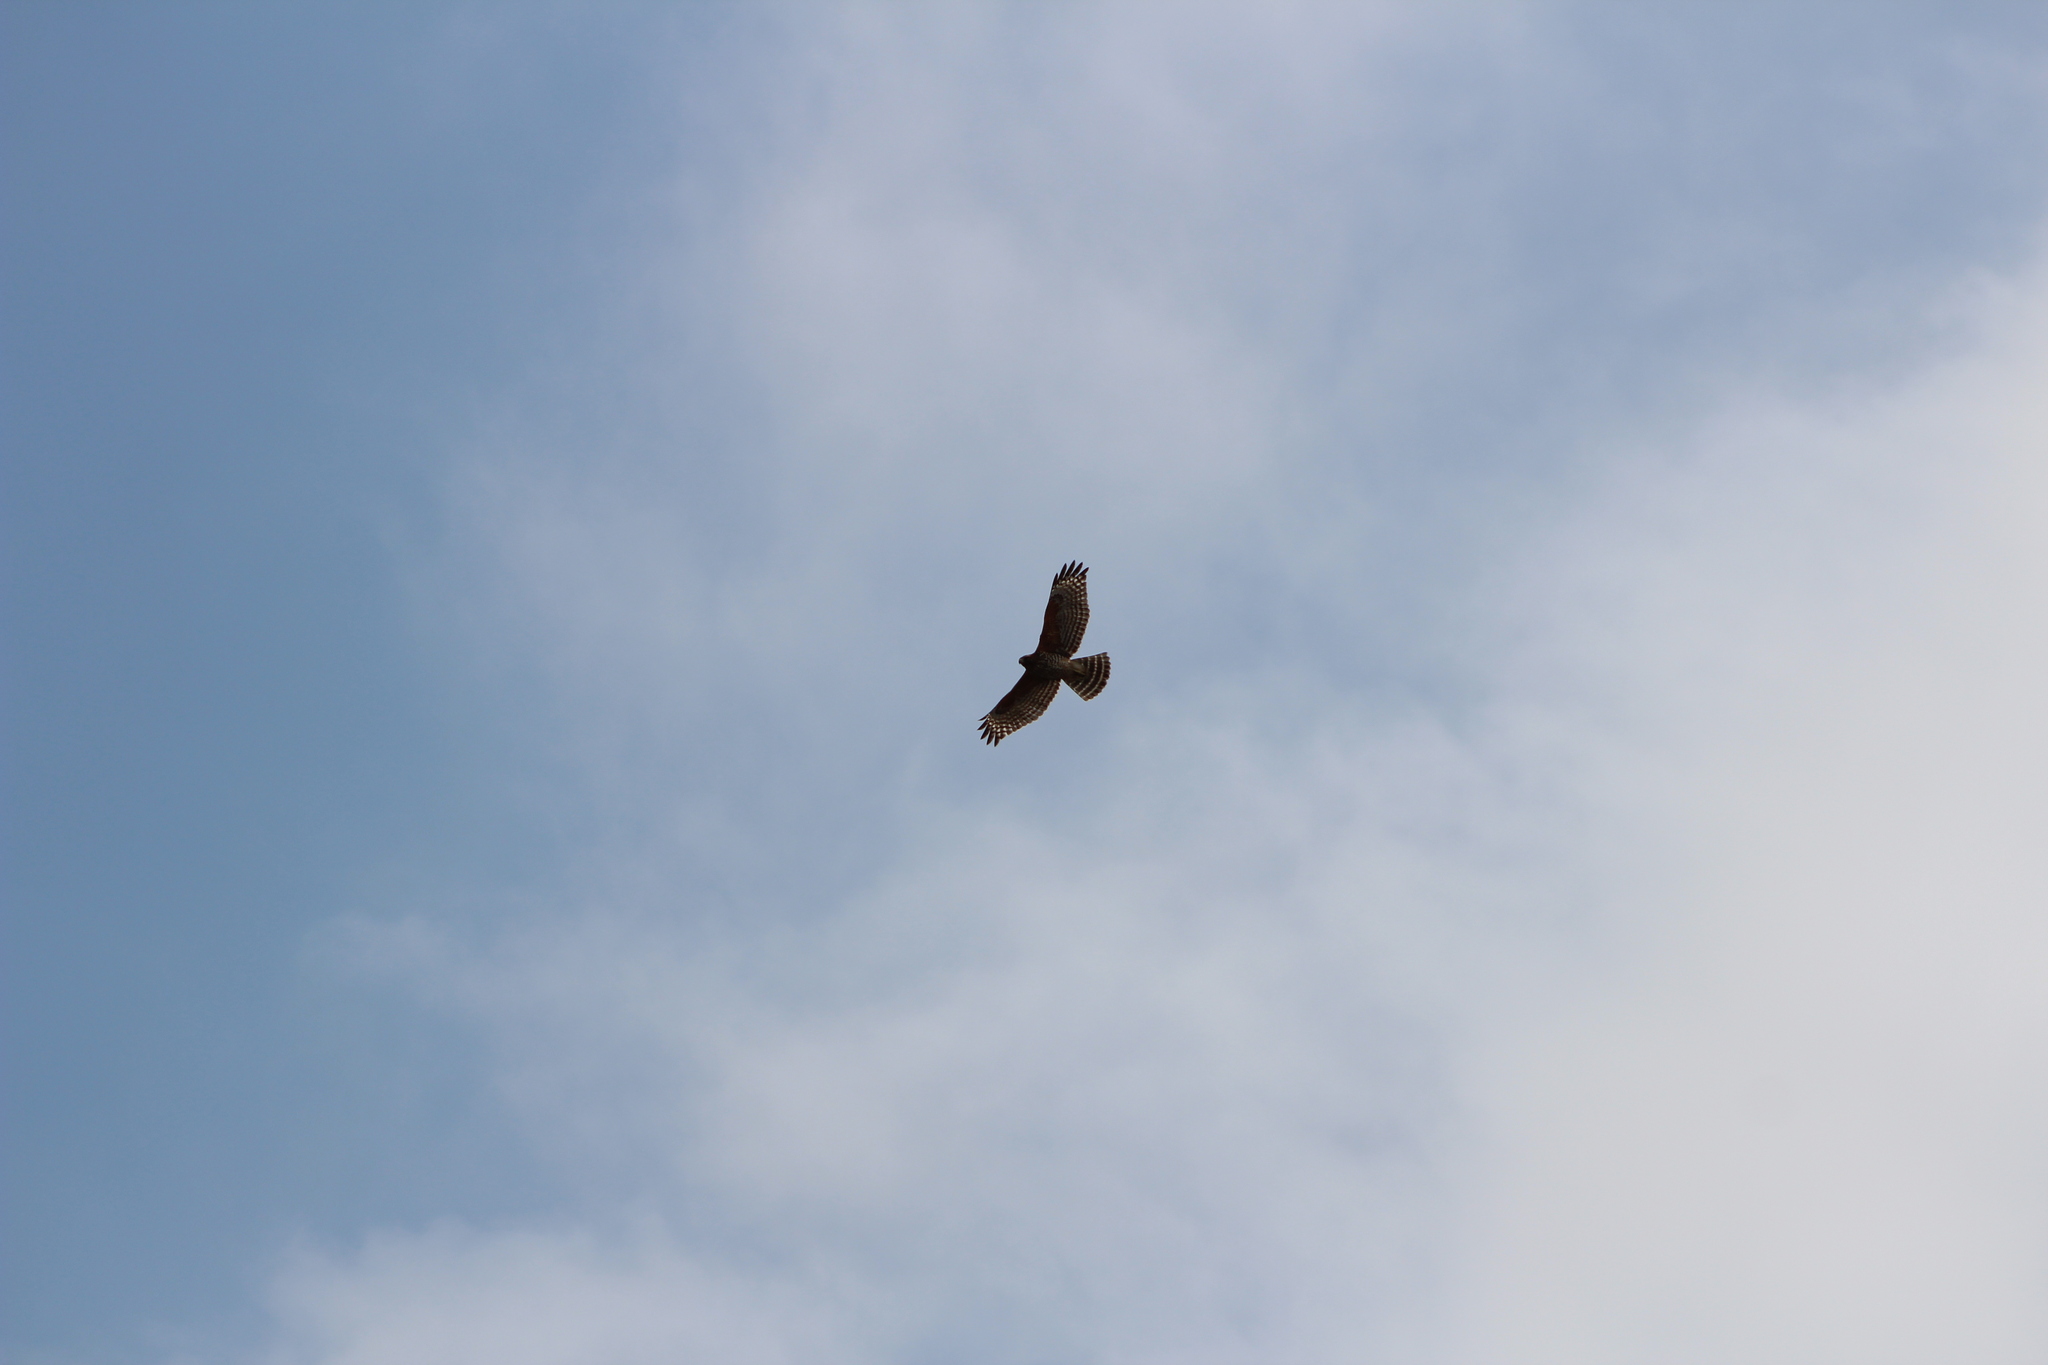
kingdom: Animalia
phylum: Chordata
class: Aves
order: Accipitriformes
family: Accipitridae
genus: Buteo
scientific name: Buteo lineatus
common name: Red-shouldered hawk
